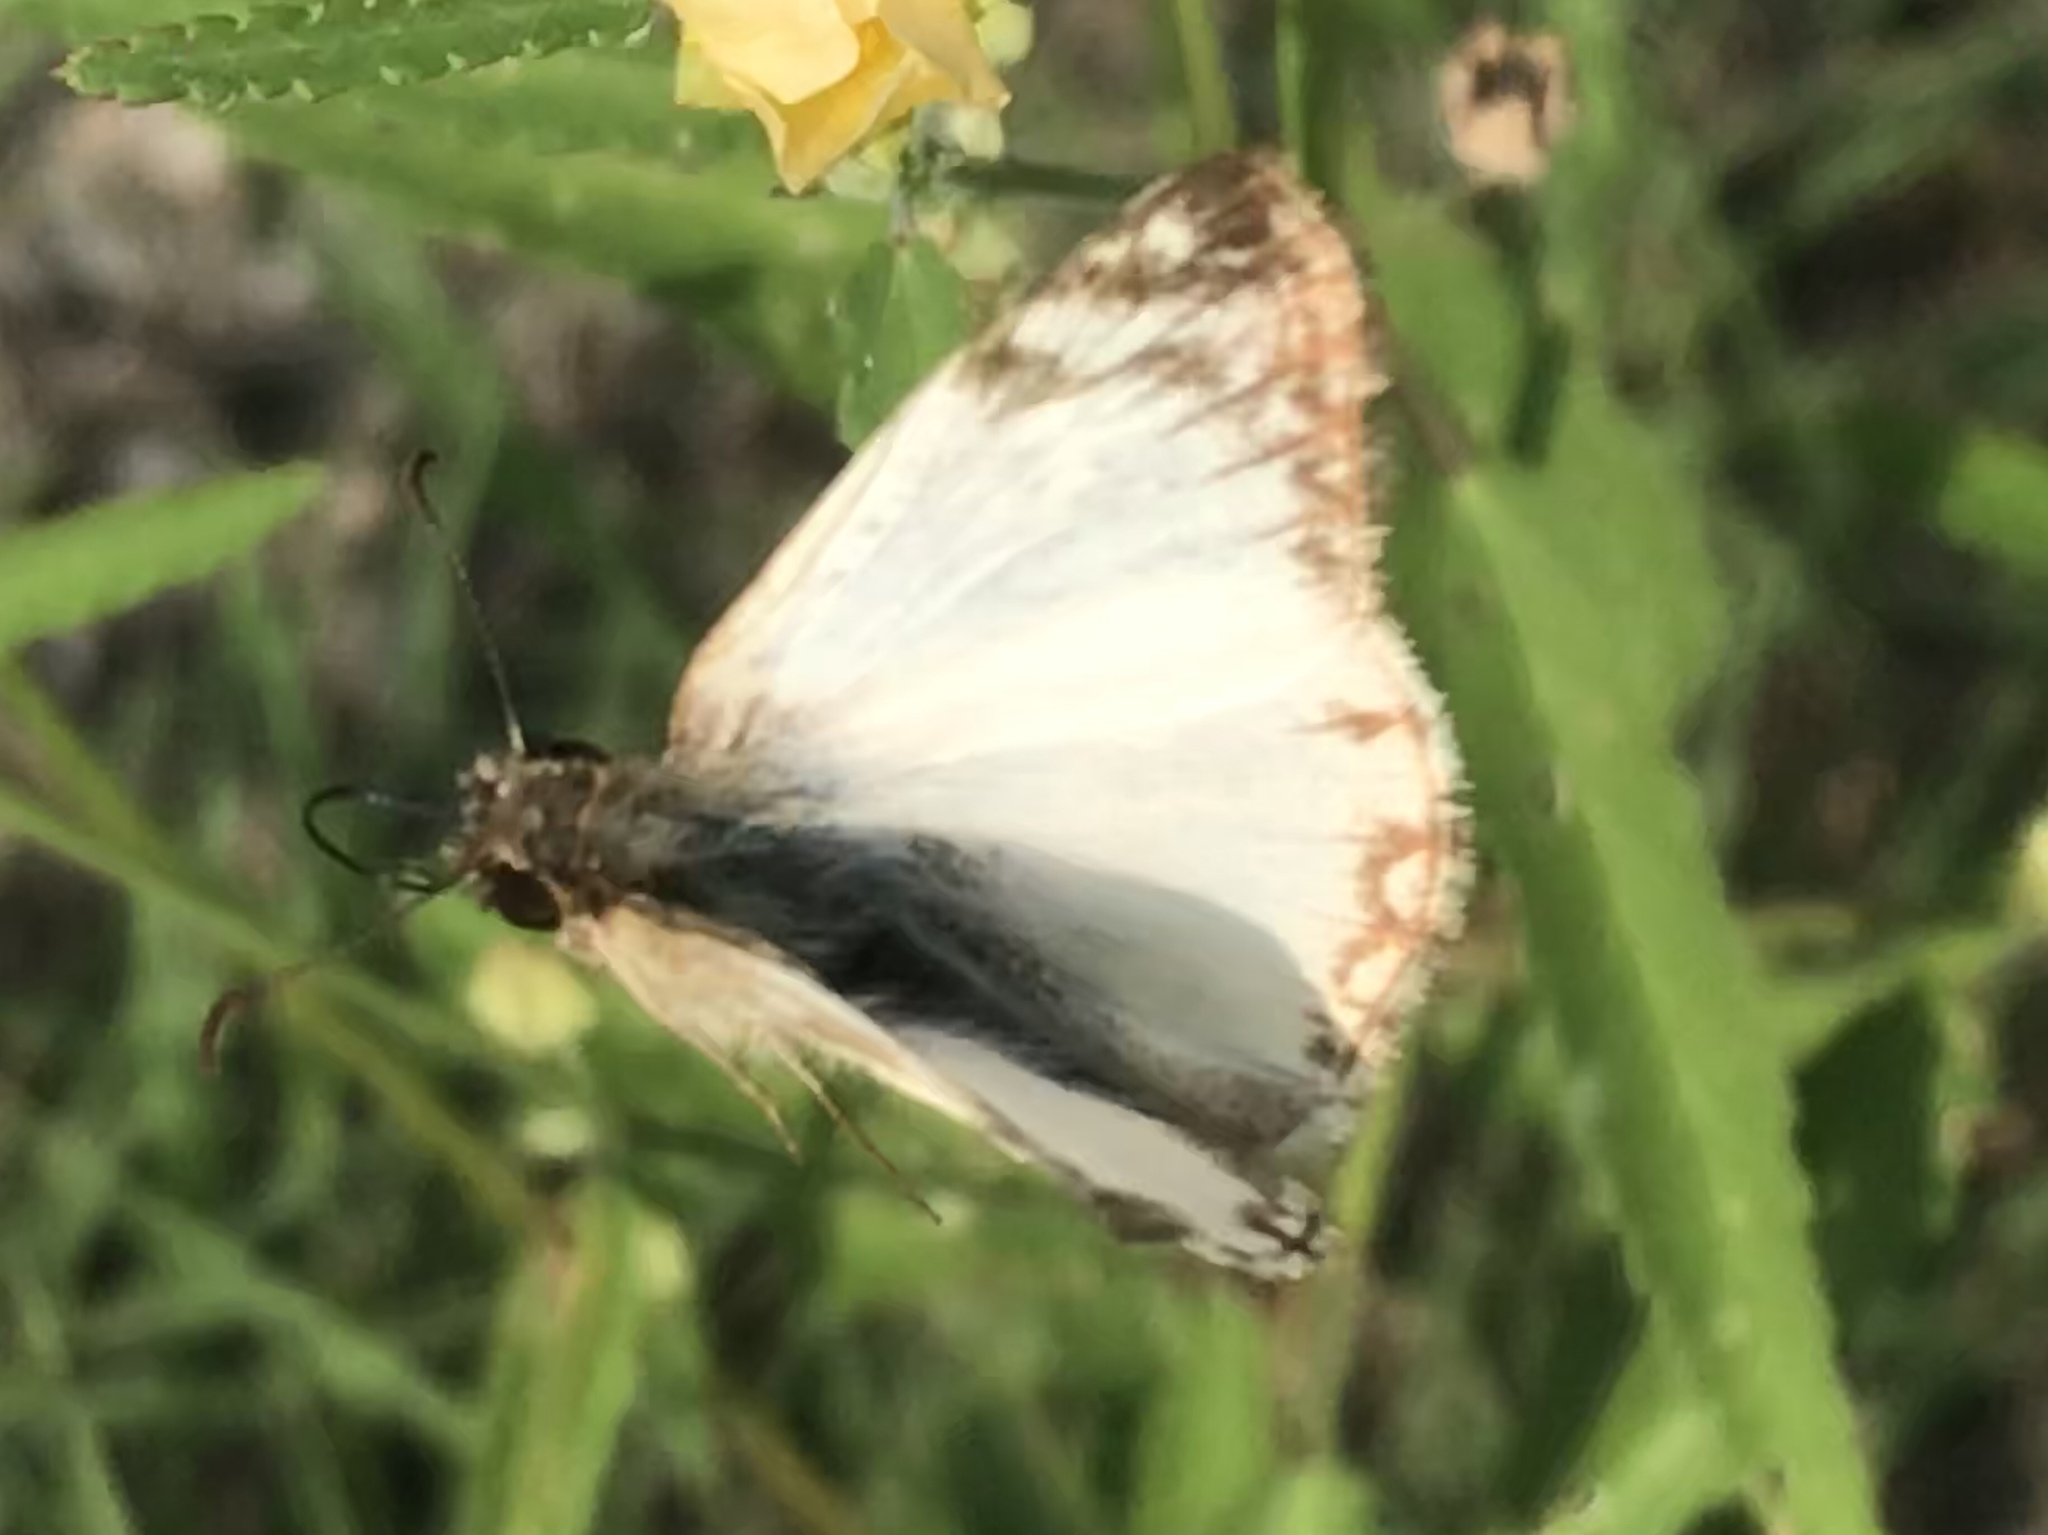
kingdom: Animalia
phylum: Arthropoda
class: Insecta
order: Lepidoptera
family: Hesperiidae
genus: Heliopetes
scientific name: Heliopetes laviana
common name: Laviana white-skipper
